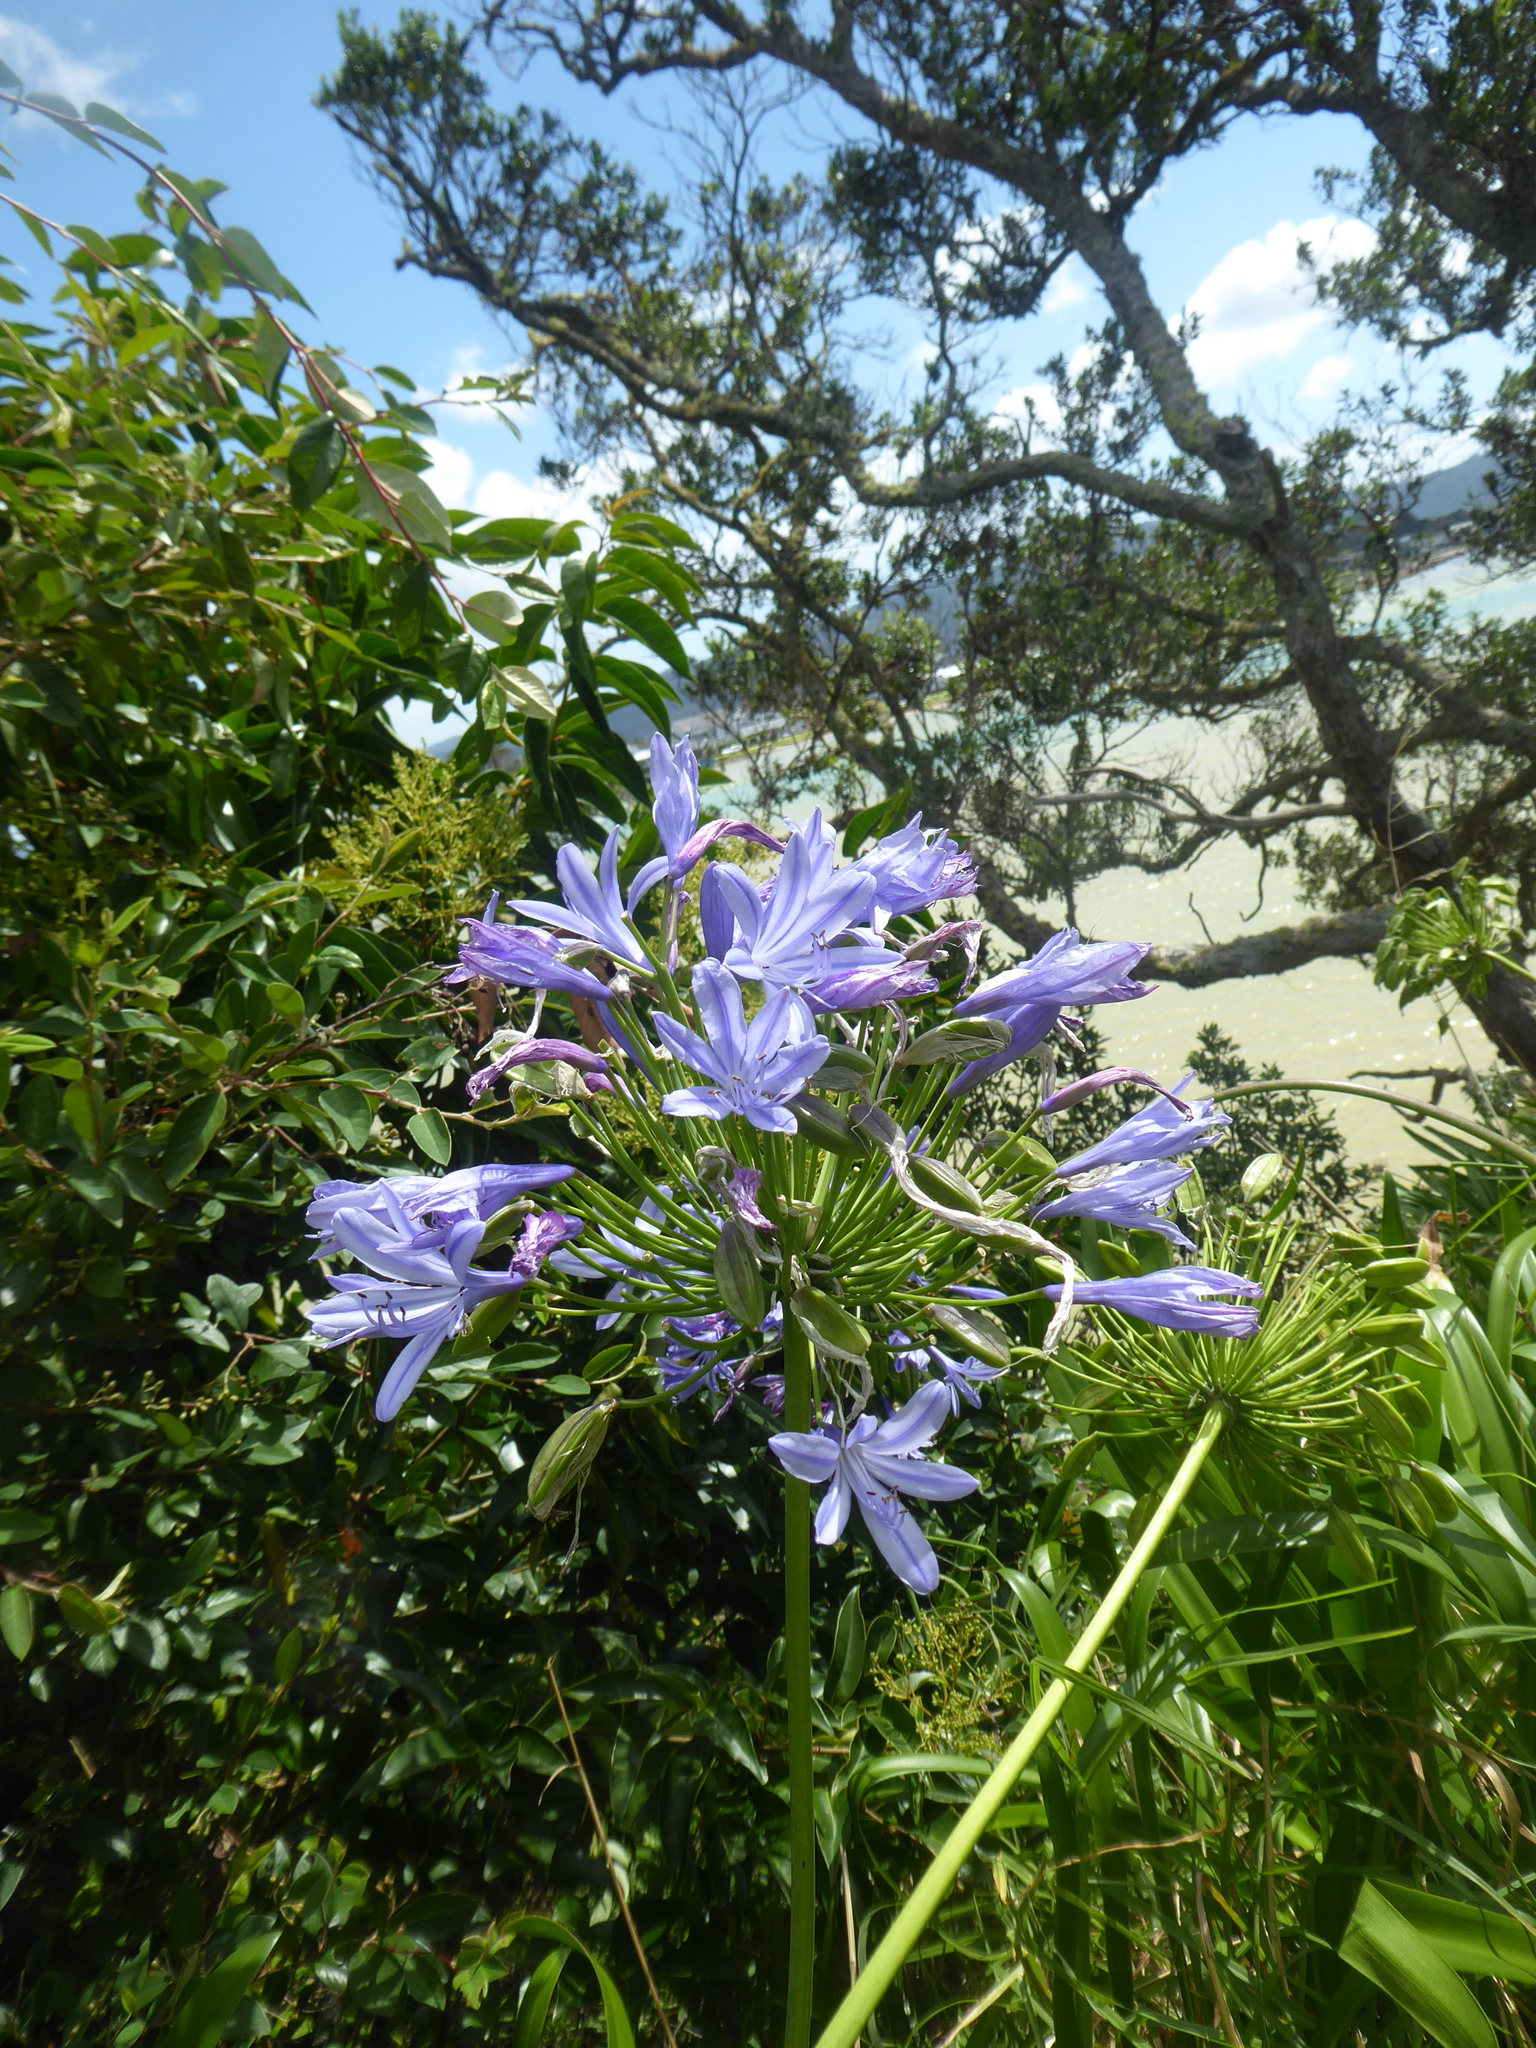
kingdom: Plantae
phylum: Tracheophyta
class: Liliopsida
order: Asparagales
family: Amaryllidaceae
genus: Agapanthus
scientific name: Agapanthus praecox
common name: African-lily
